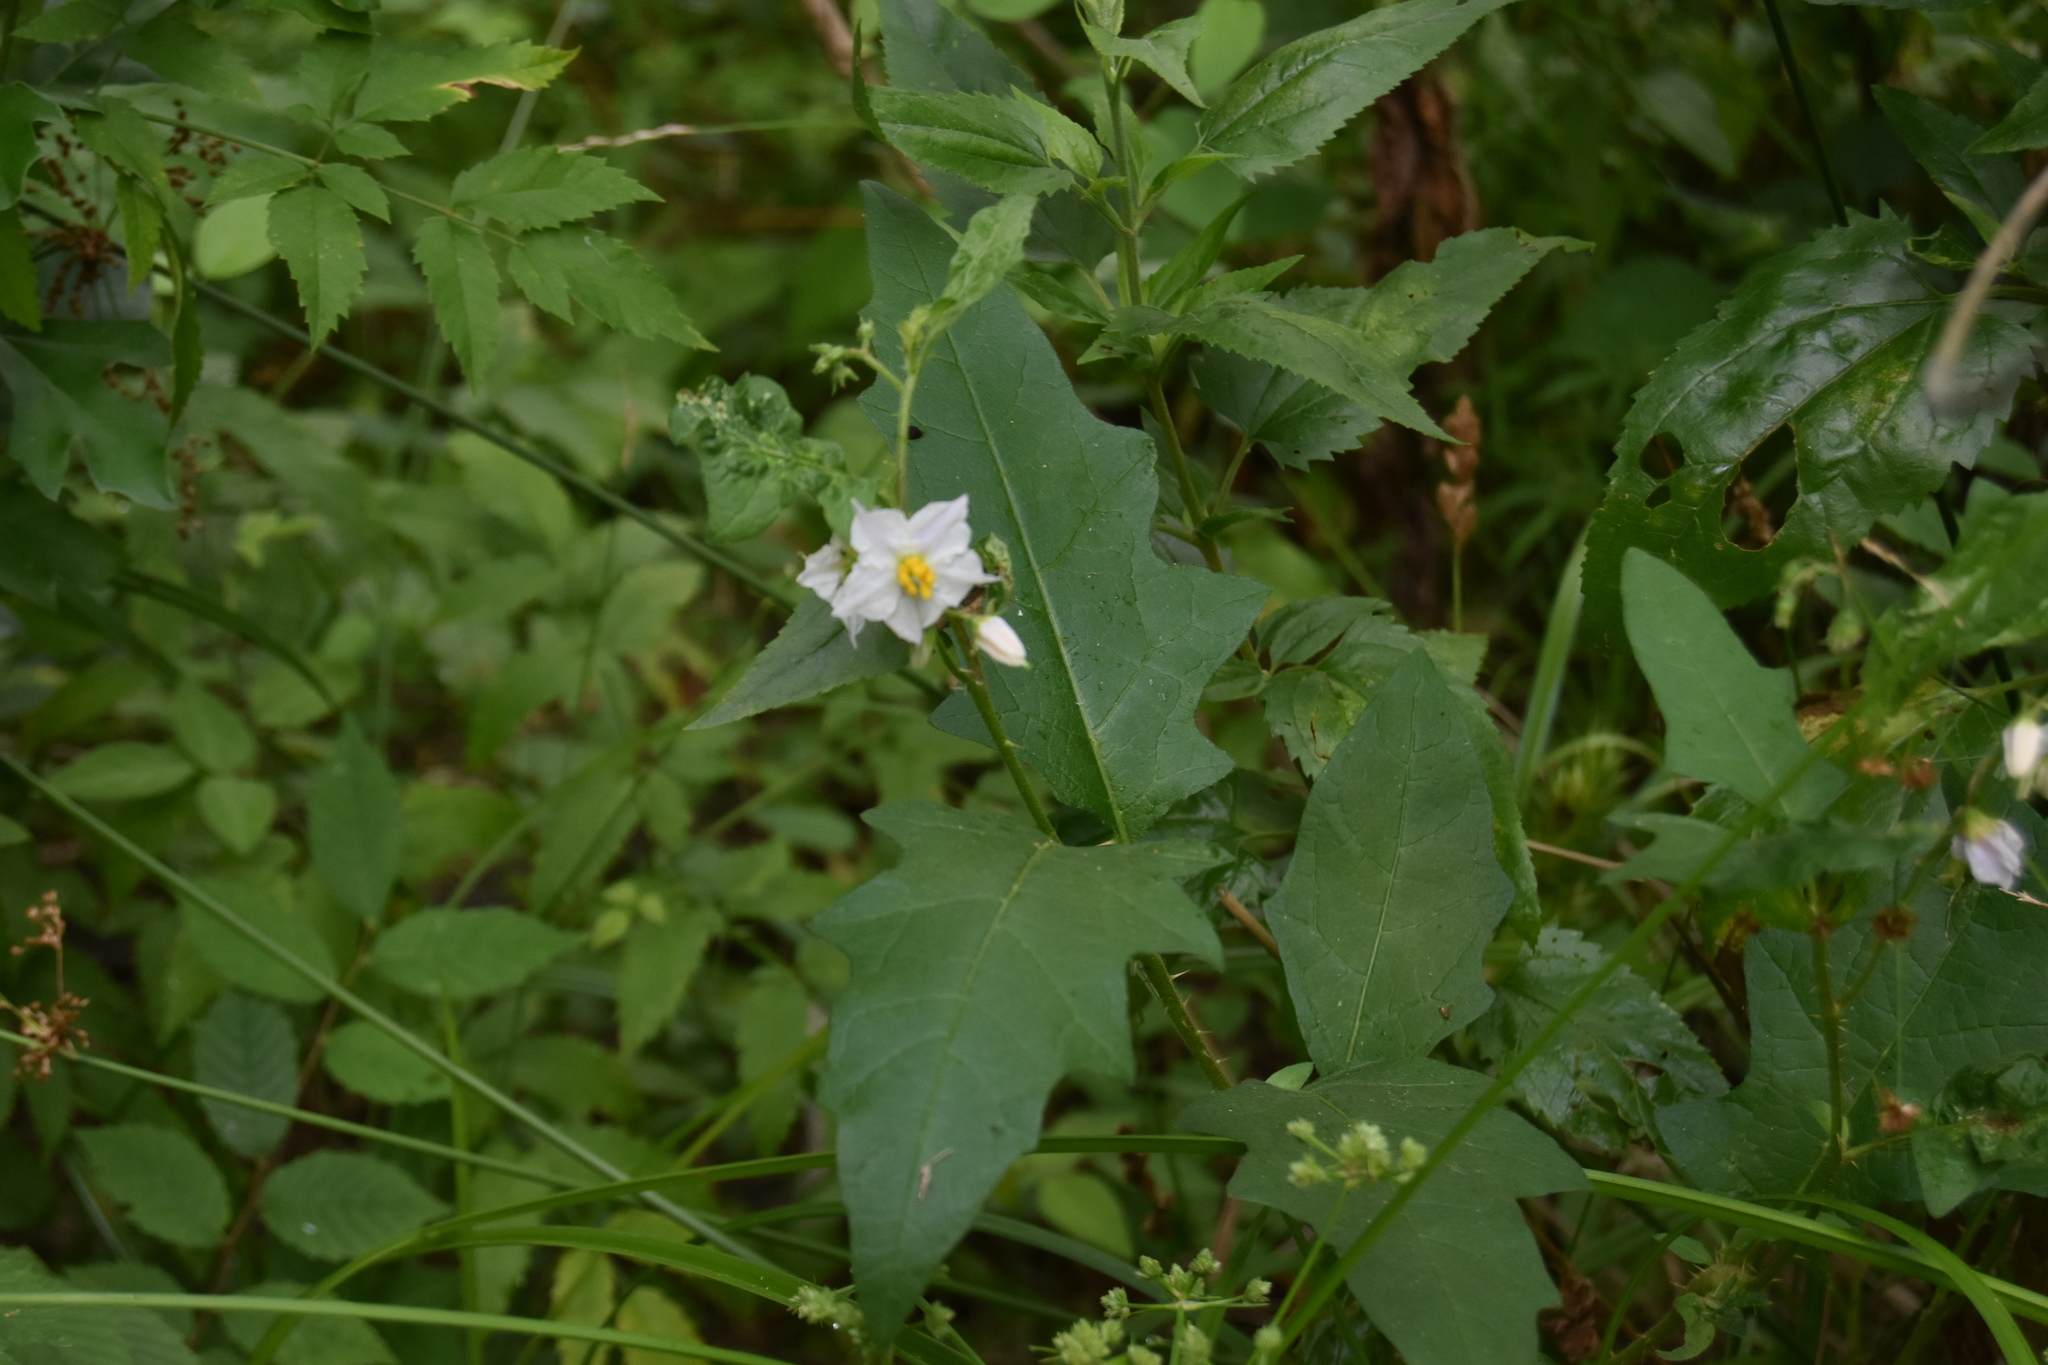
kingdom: Plantae
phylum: Tracheophyta
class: Magnoliopsida
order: Solanales
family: Solanaceae
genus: Solanum
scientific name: Solanum carolinense
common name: Horse-nettle
